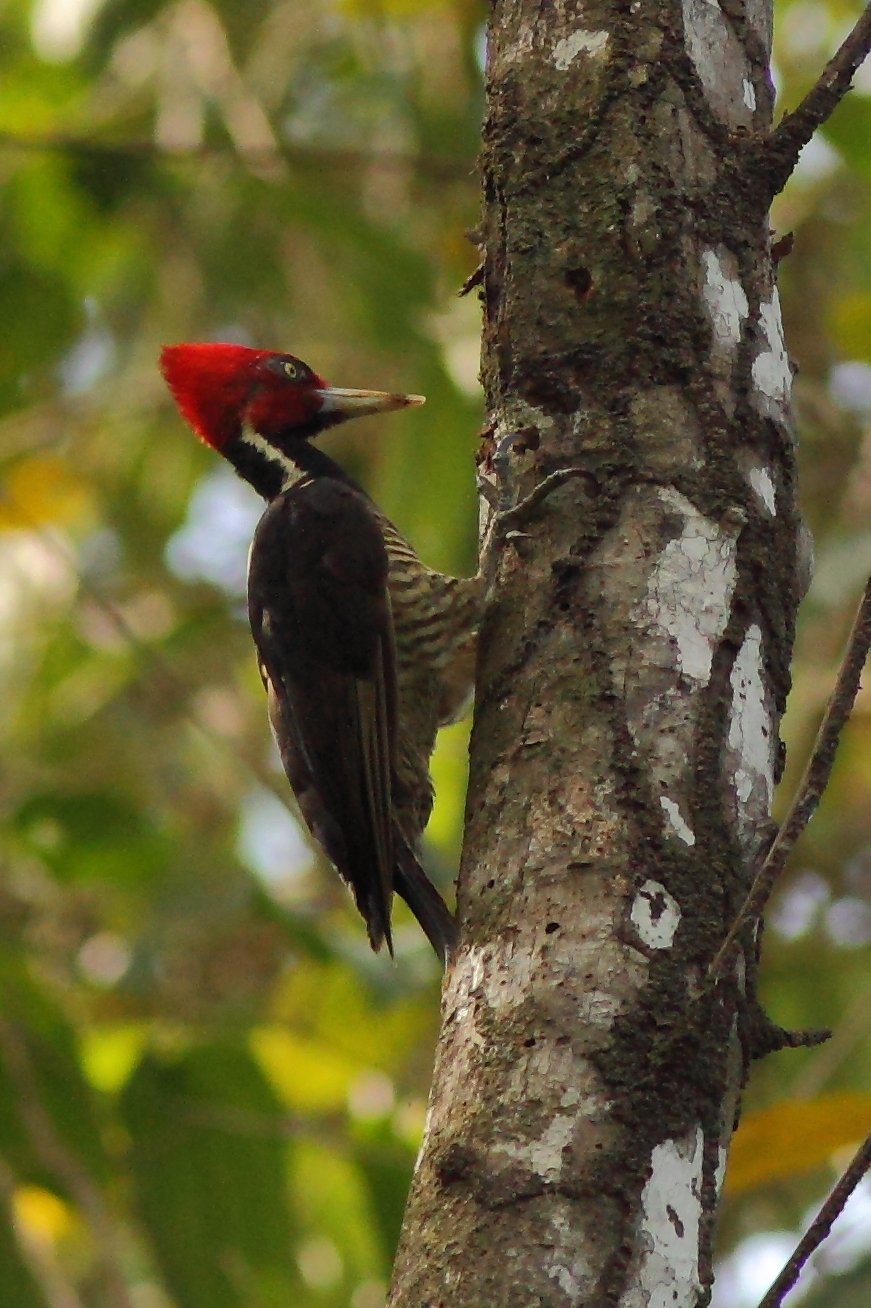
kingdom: Animalia
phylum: Chordata
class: Aves
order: Piciformes
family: Picidae
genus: Campephilus
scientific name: Campephilus guatemalensis
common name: Pale-billed woodpecker
